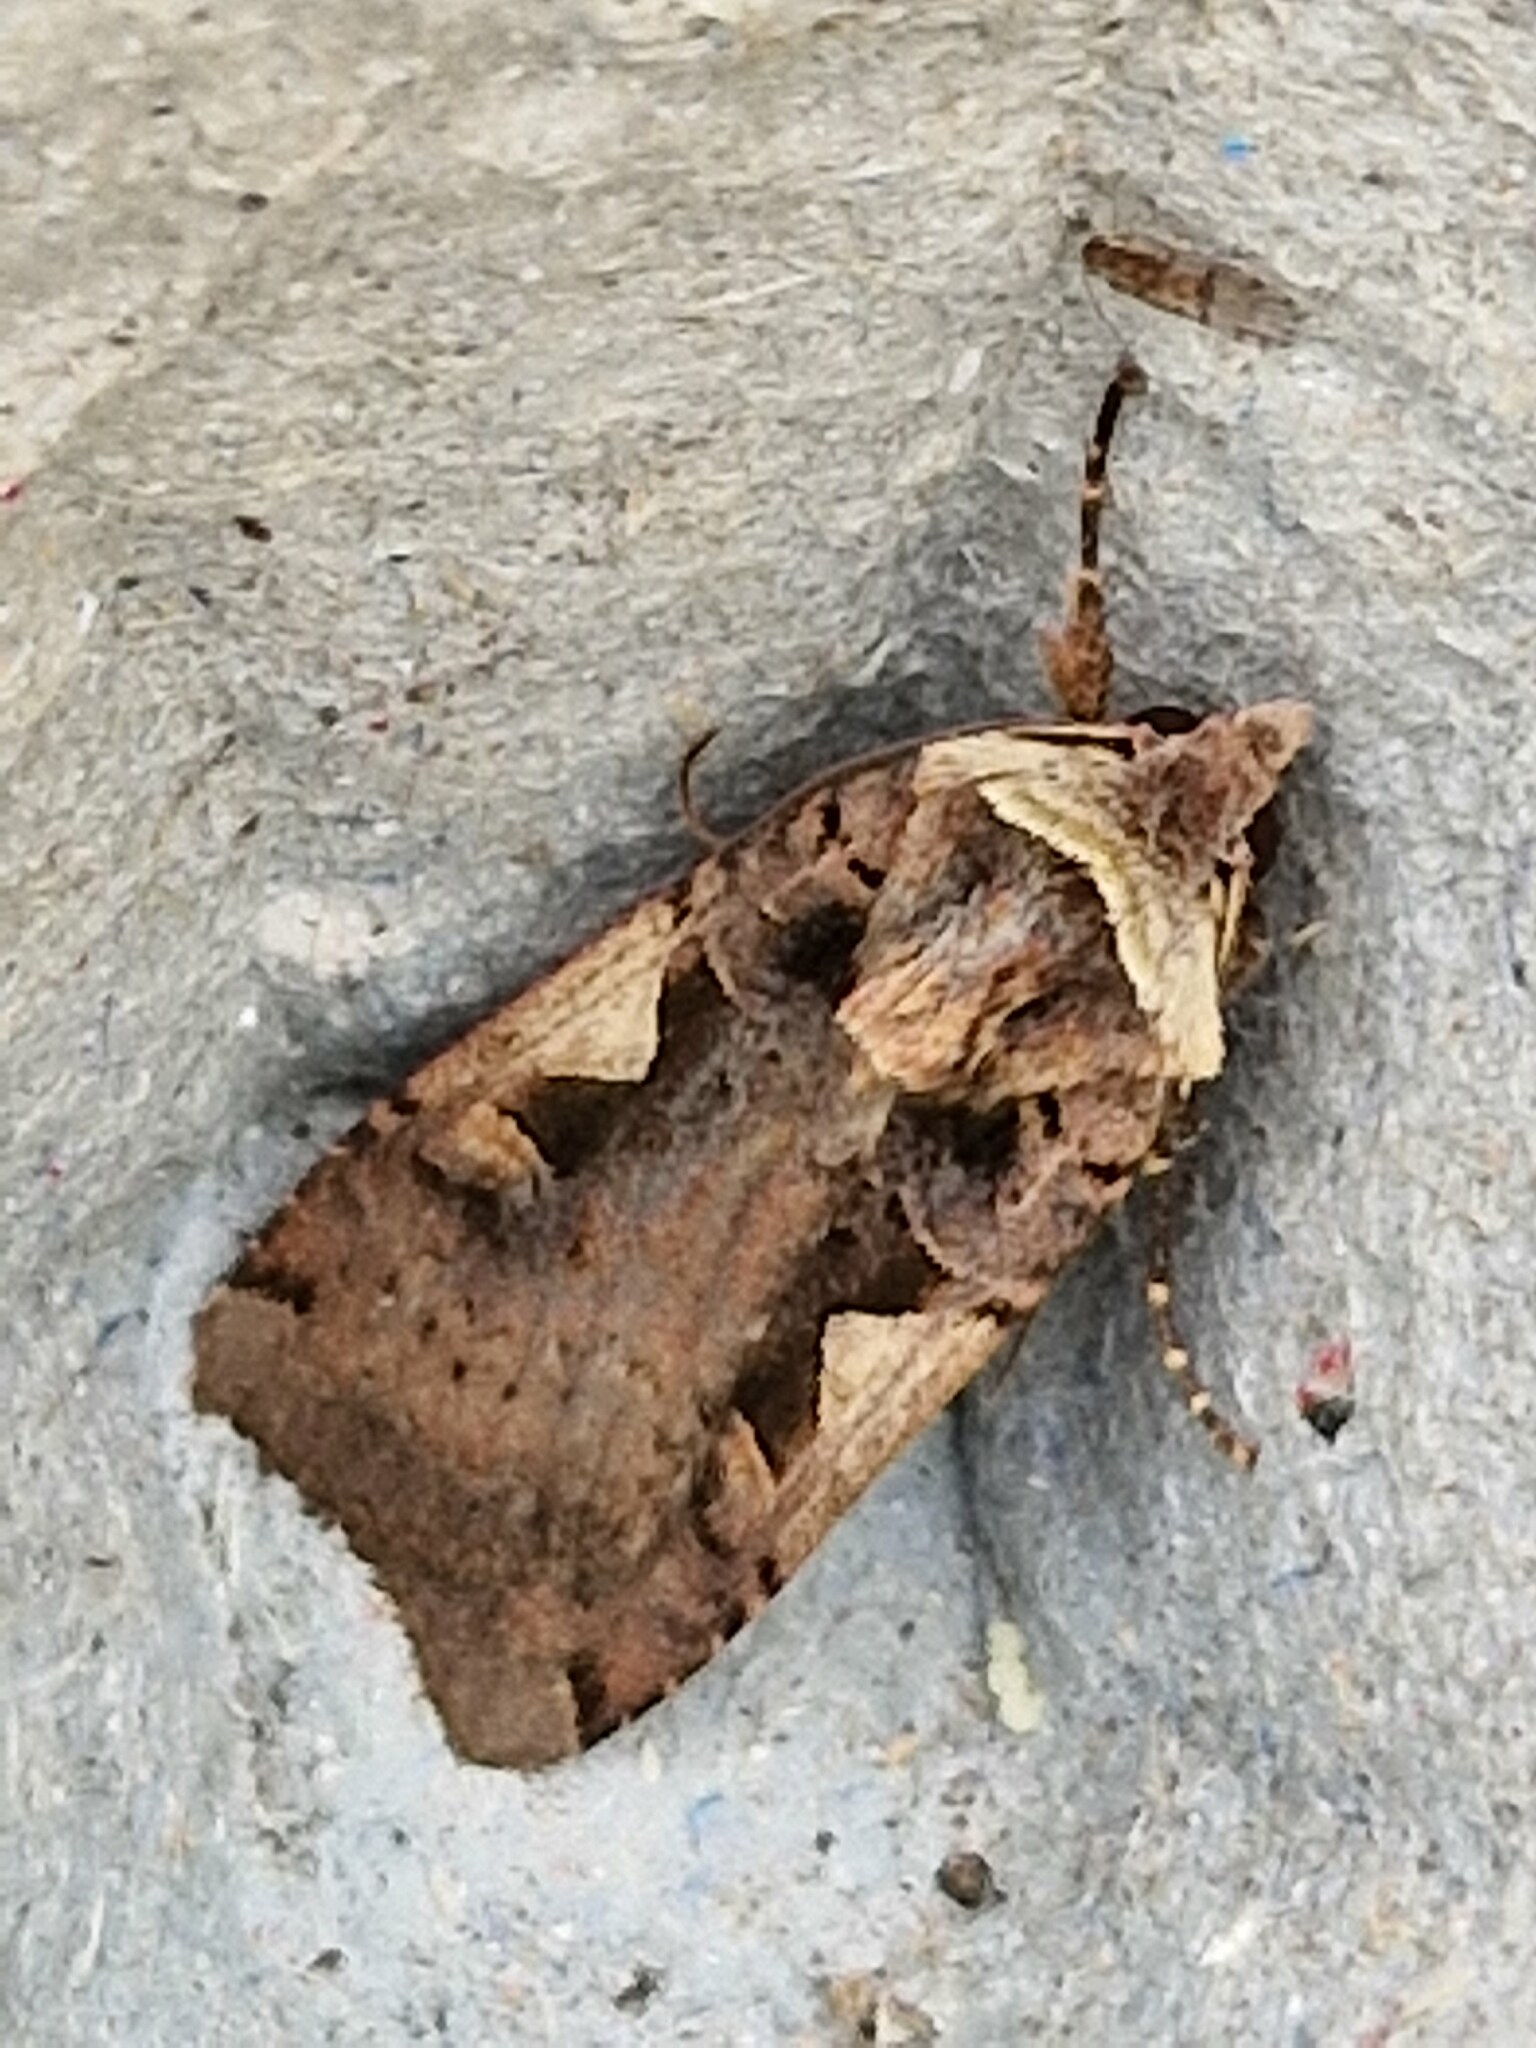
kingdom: Animalia
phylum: Arthropoda
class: Insecta
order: Lepidoptera
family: Noctuidae
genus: Xestia
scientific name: Xestia c-nigrum
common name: Setaceous hebrew character
